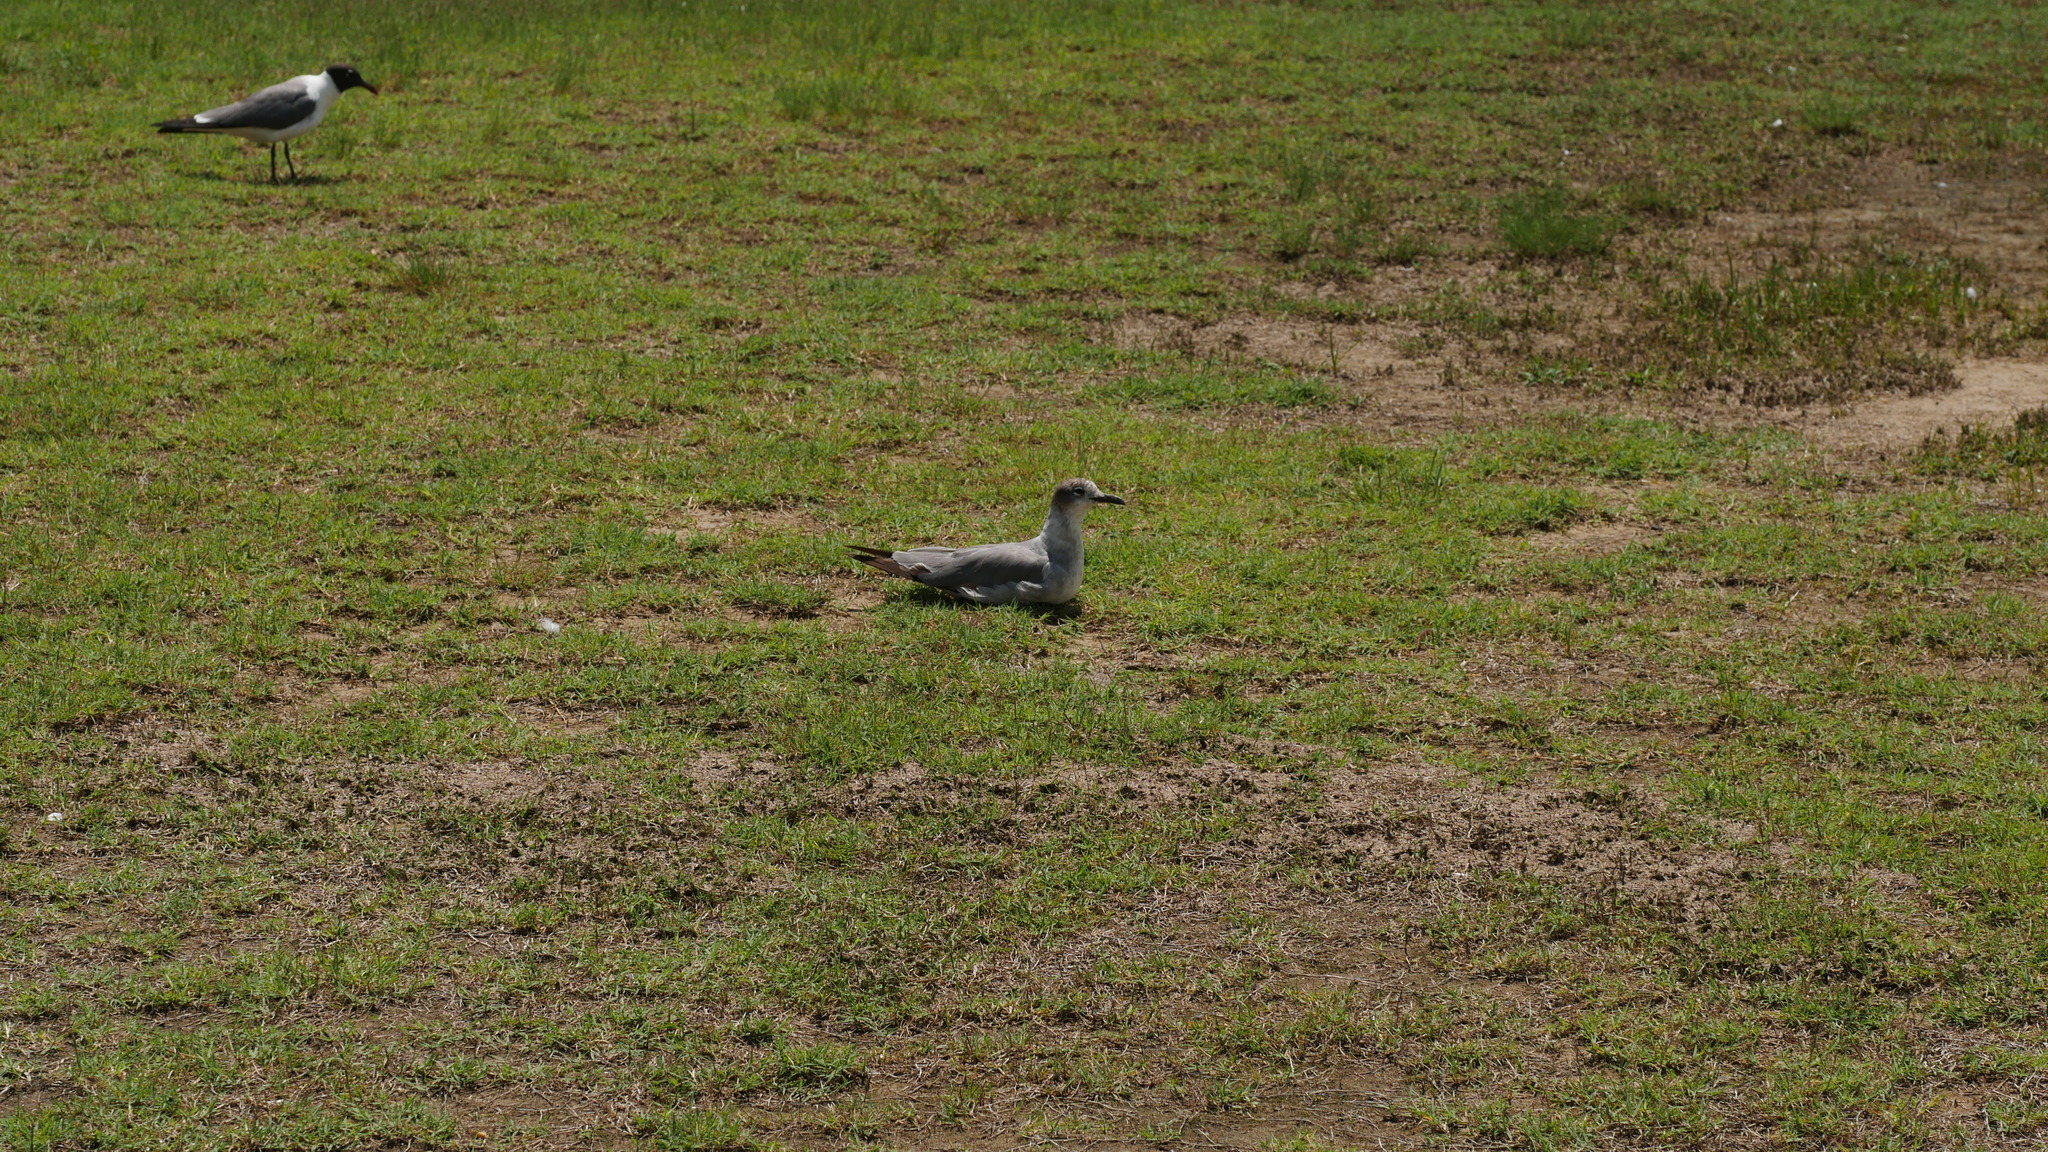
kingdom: Animalia
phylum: Chordata
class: Aves
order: Charadriiformes
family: Laridae
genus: Leucophaeus
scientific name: Leucophaeus atricilla
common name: Laughing gull
